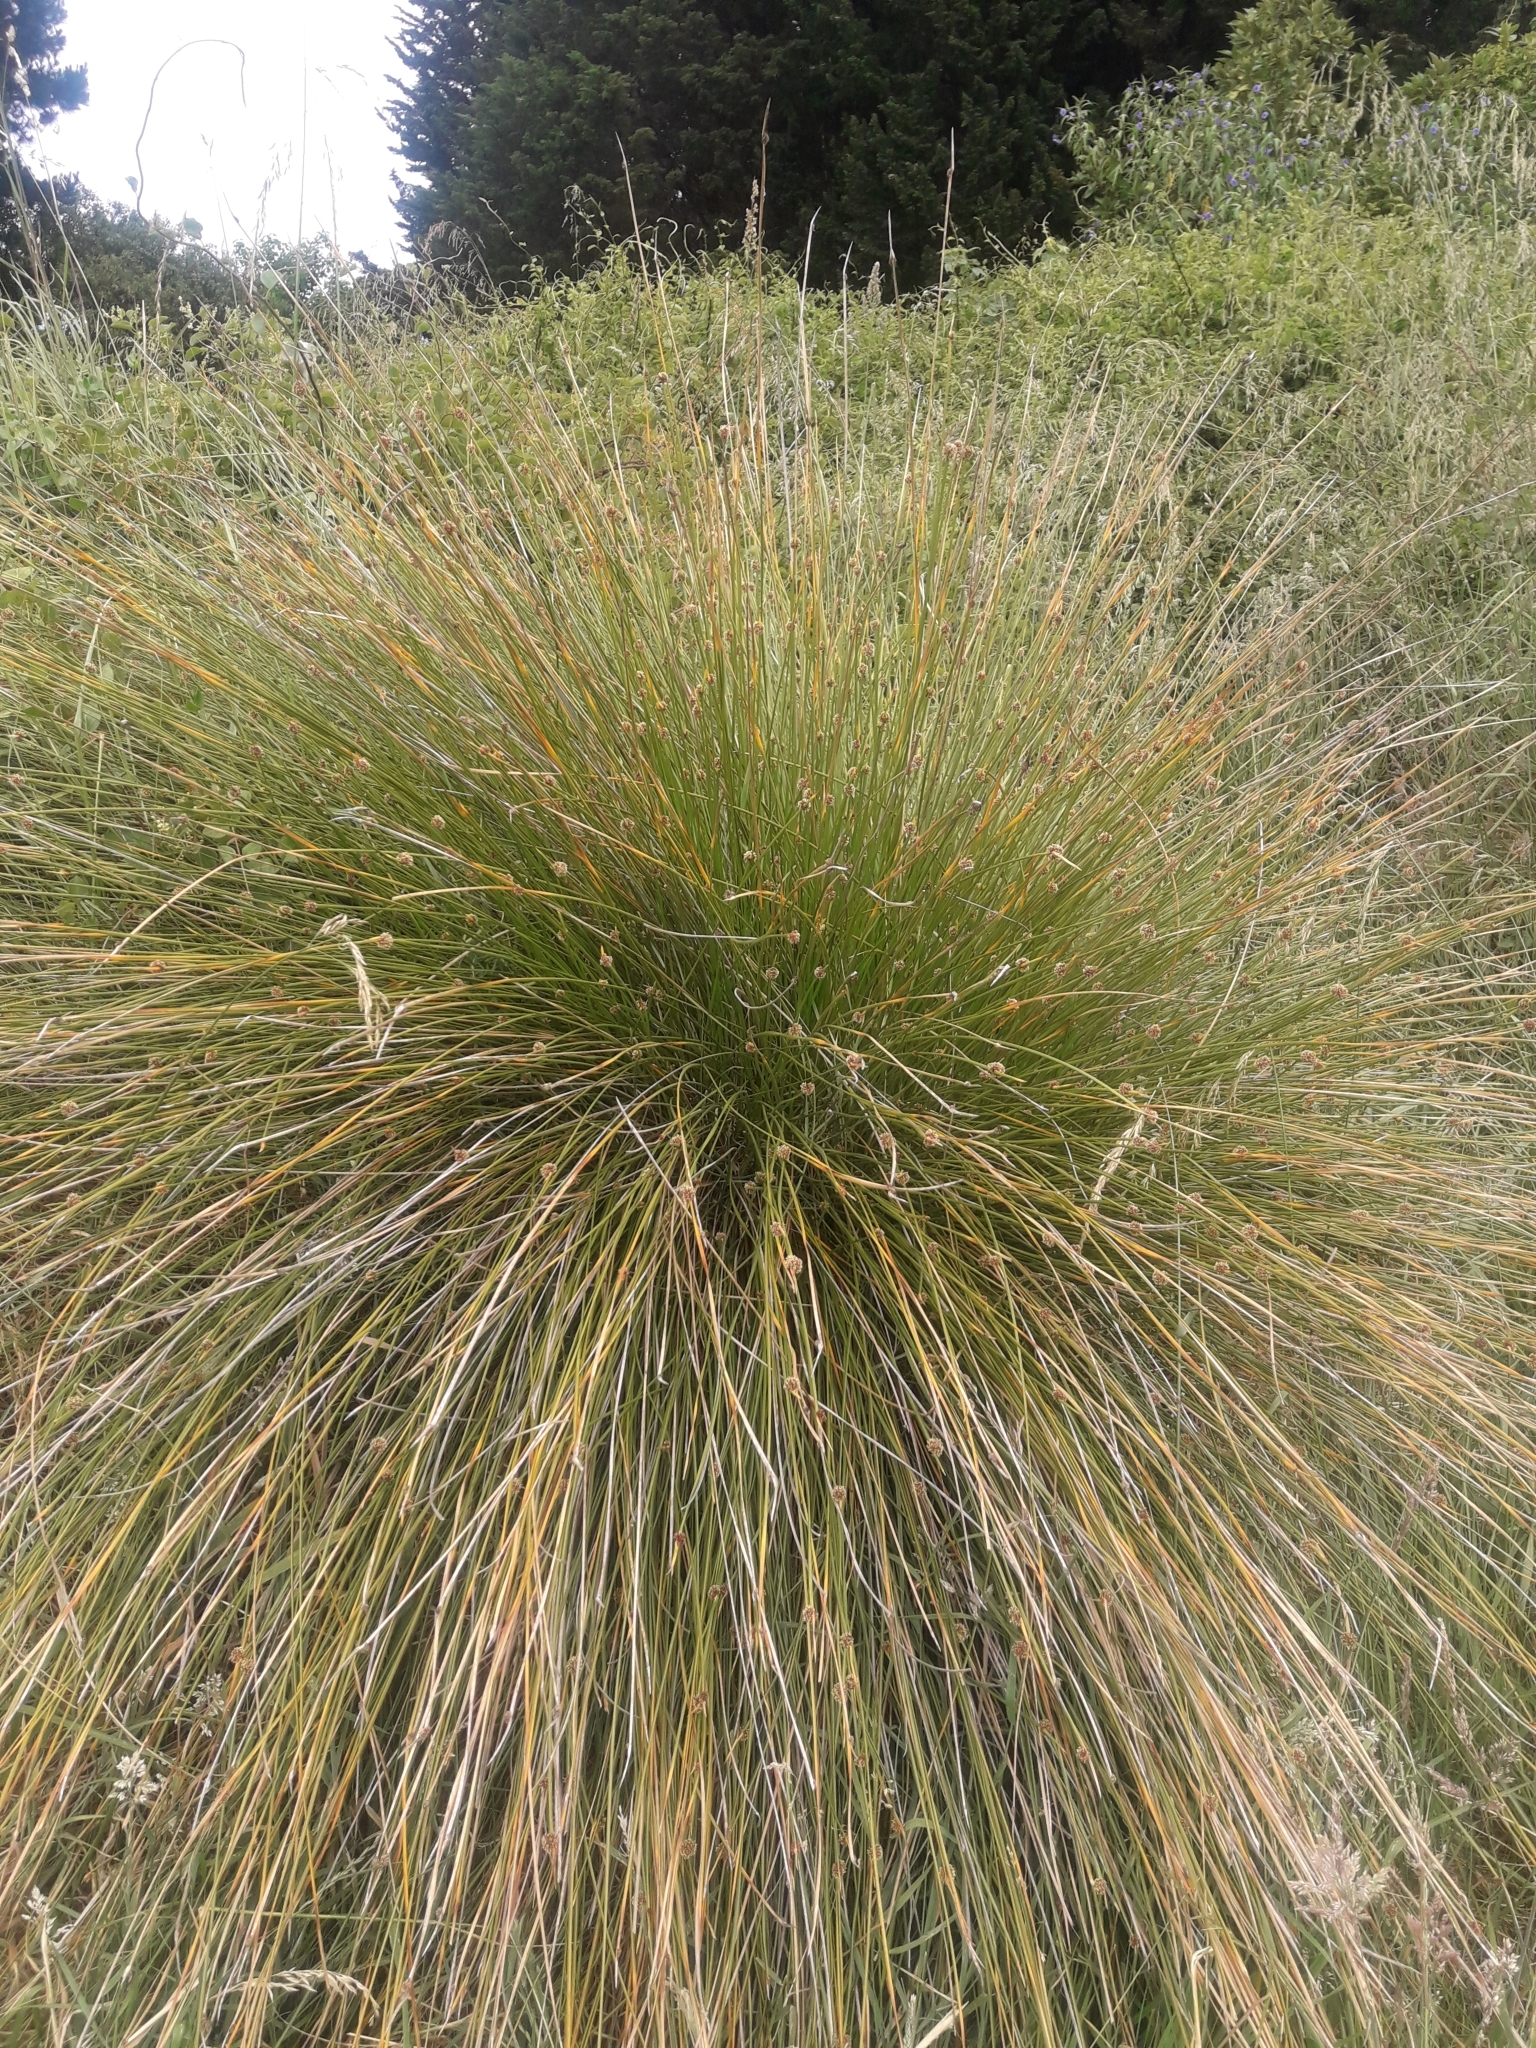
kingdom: Plantae
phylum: Tracheophyta
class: Liliopsida
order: Poales
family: Cyperaceae
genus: Ficinia
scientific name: Ficinia nodosa
